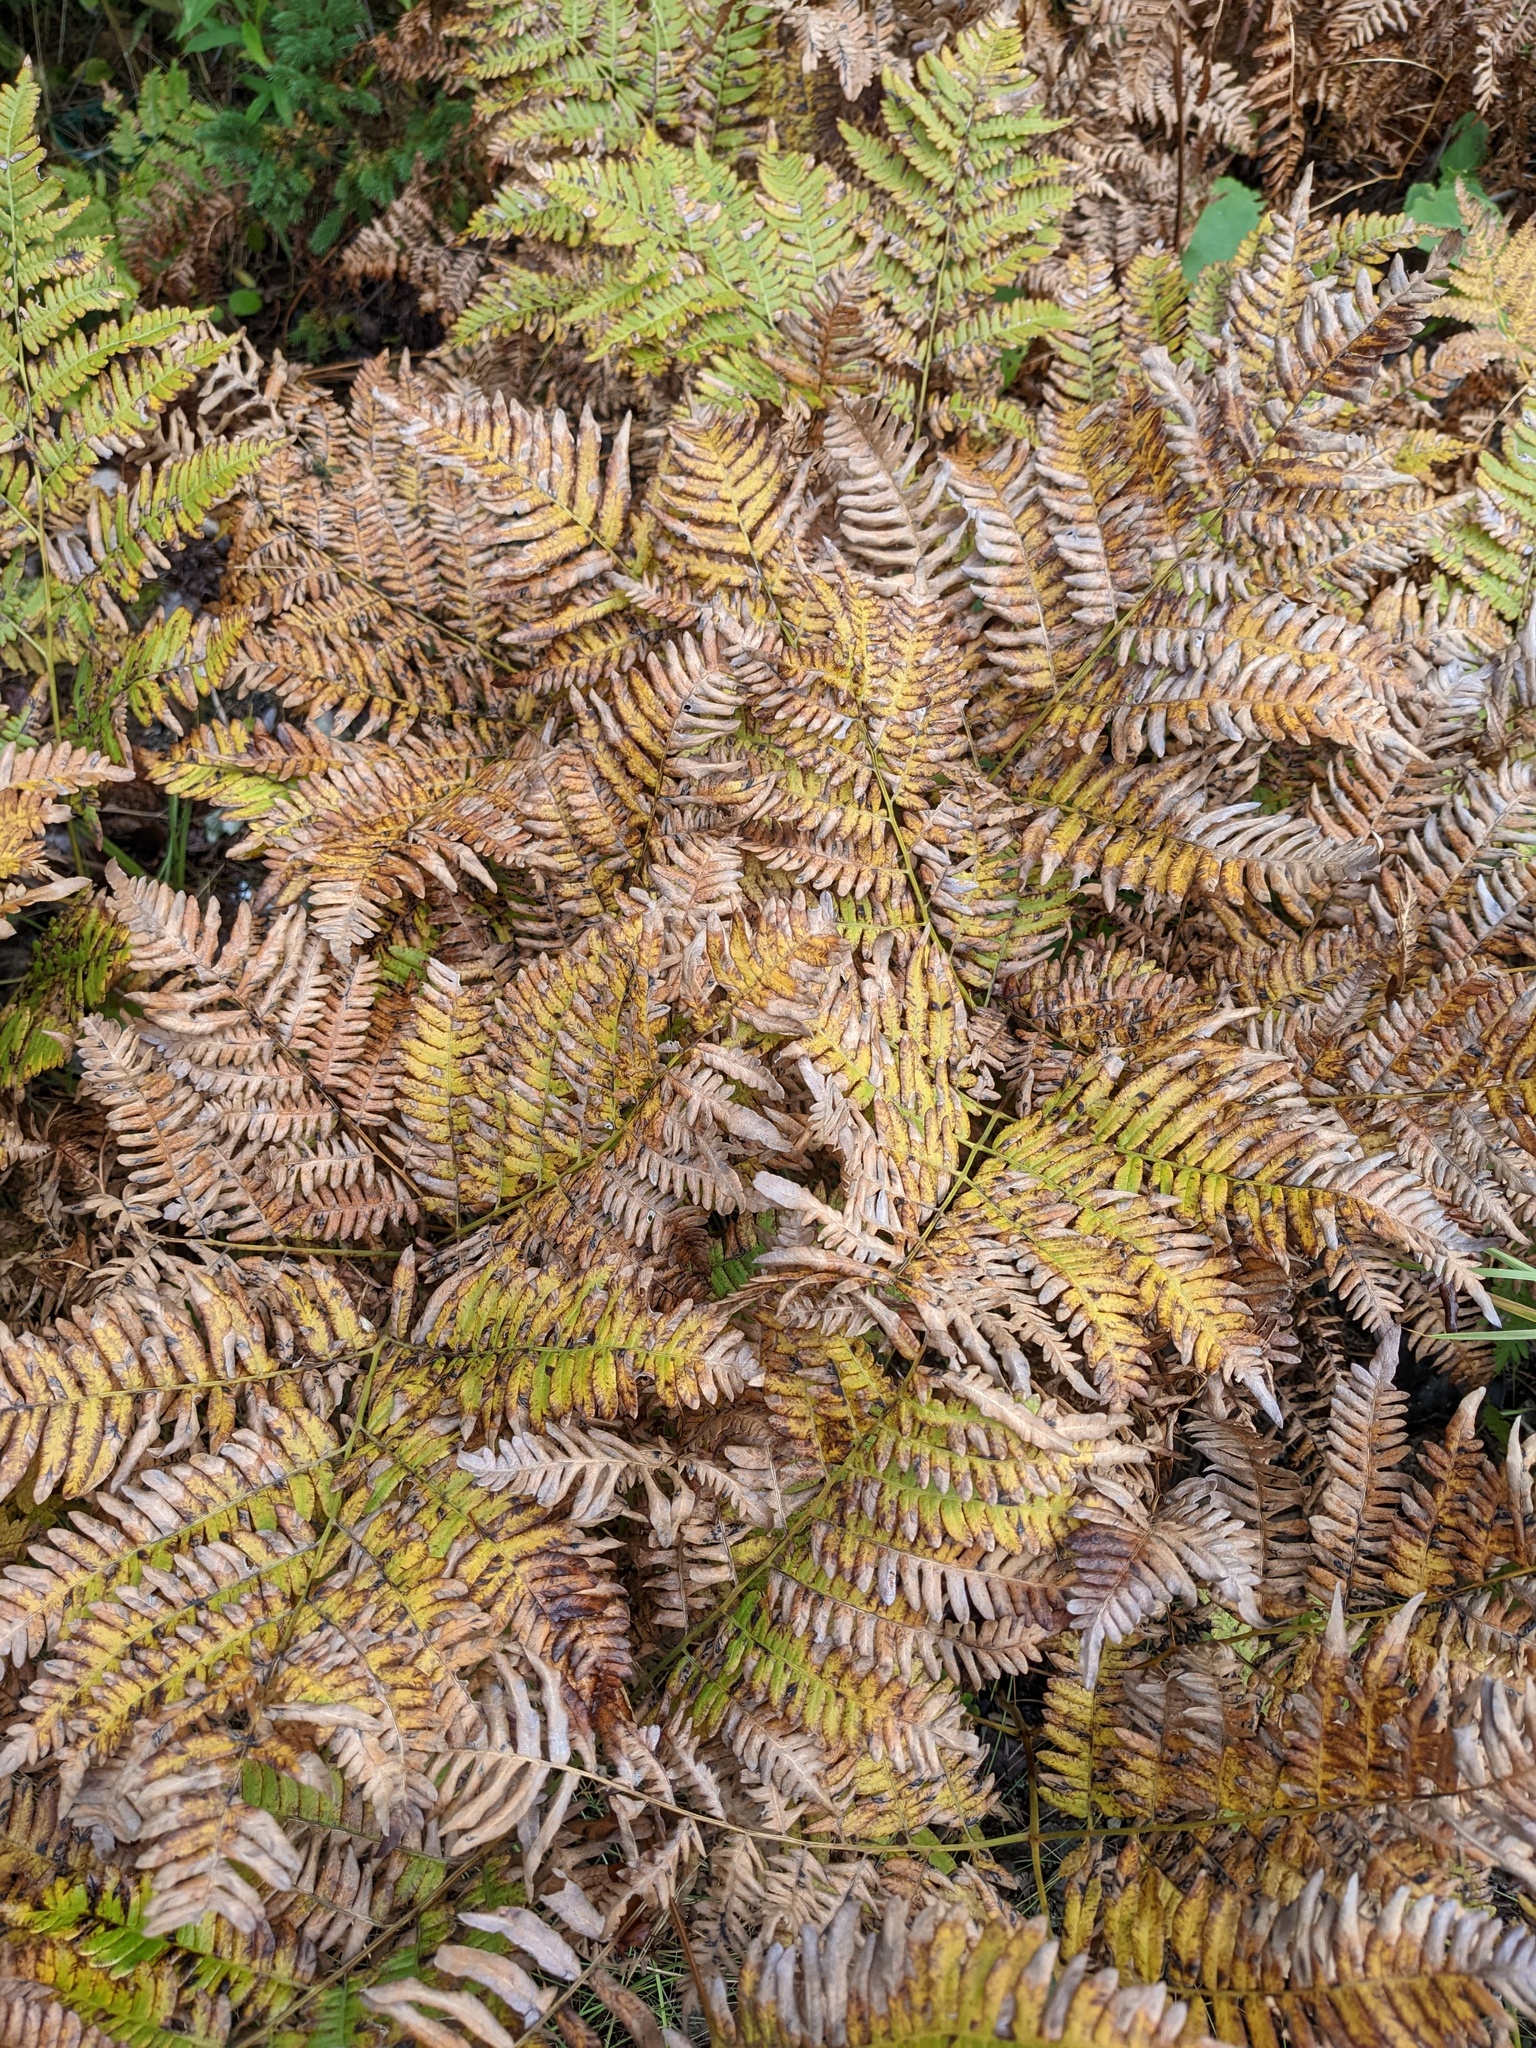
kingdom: Plantae
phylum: Tracheophyta
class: Polypodiopsida
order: Polypodiales
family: Dennstaedtiaceae
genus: Pteridium
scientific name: Pteridium aquilinum
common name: Bracken
